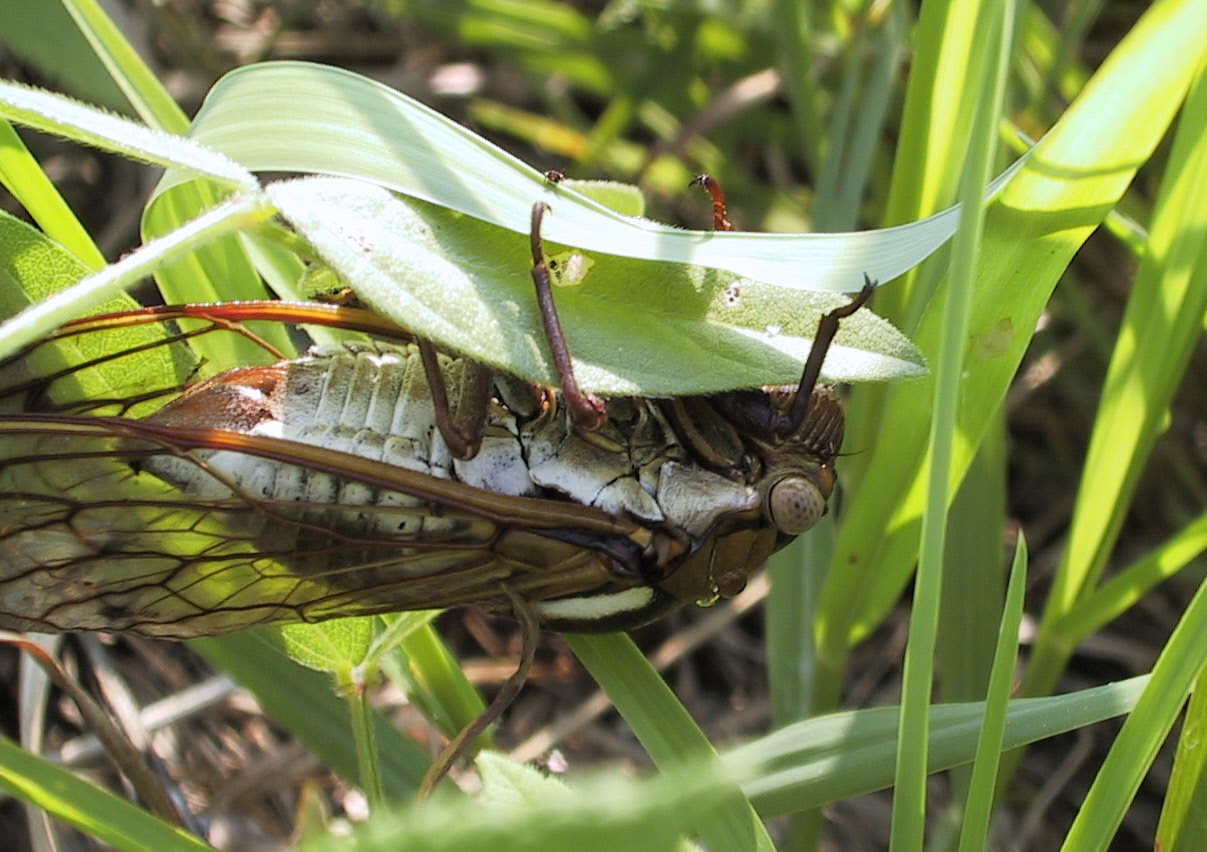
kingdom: Animalia
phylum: Arthropoda
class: Insecta
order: Hemiptera
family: Cicadidae
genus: Megatibicen
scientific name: Megatibicen dorsatus
